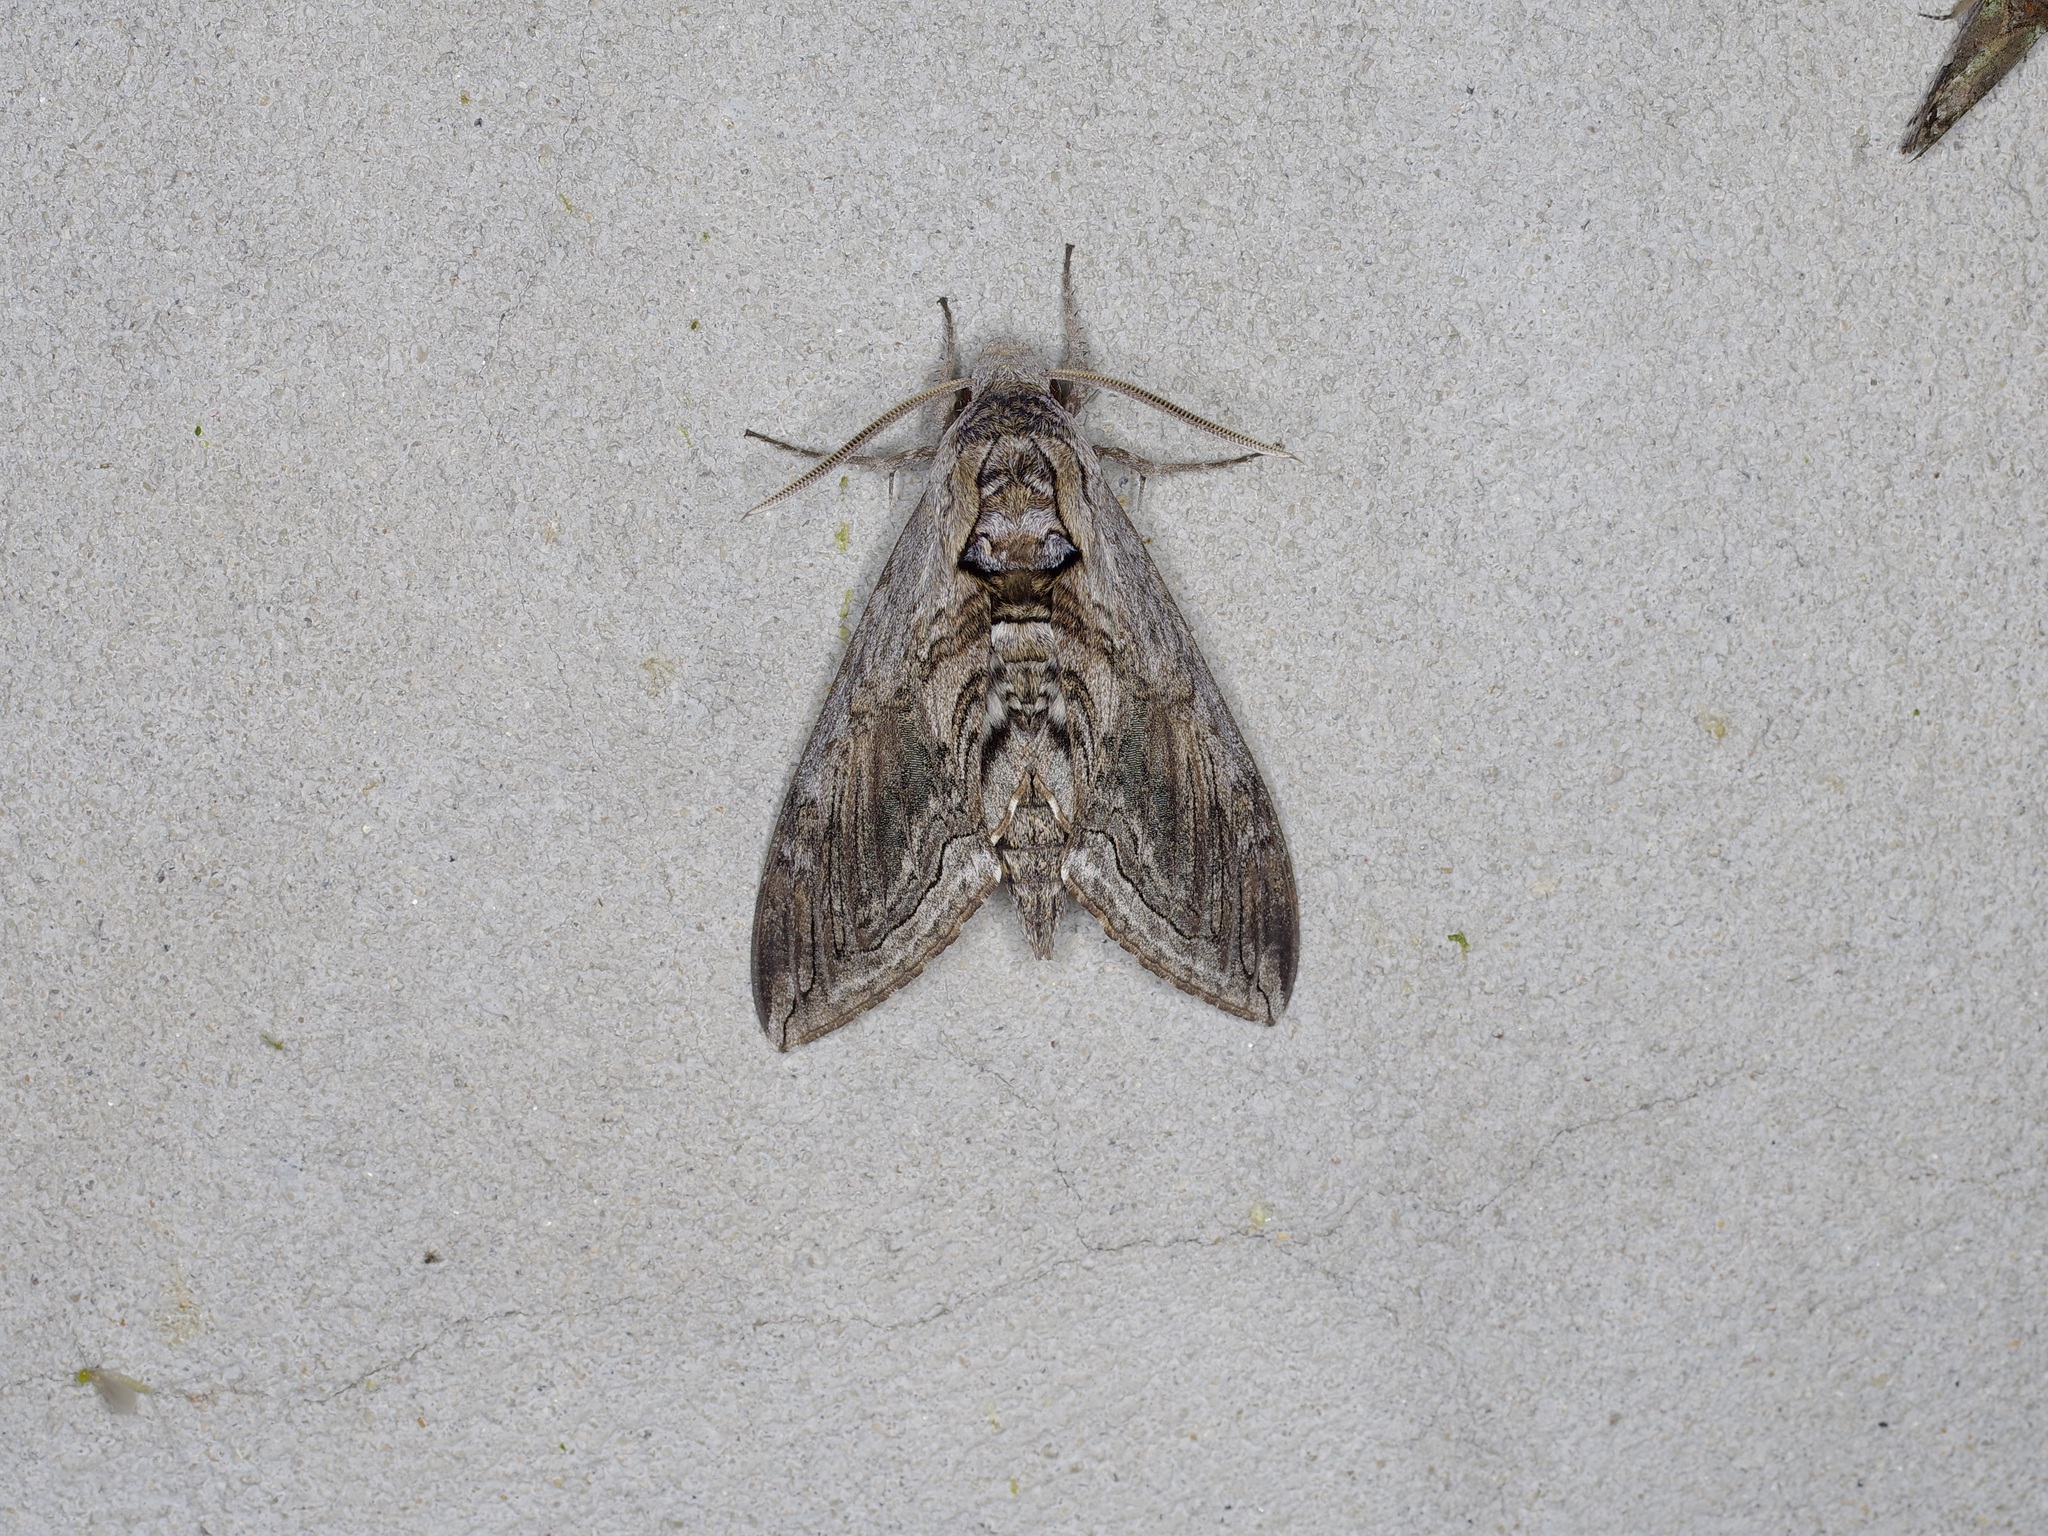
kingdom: Animalia
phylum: Arthropoda
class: Insecta
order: Lepidoptera
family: Sphingidae
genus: Manduca
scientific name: Manduca quinquemaculatus
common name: Five-spotted hawk-moth
